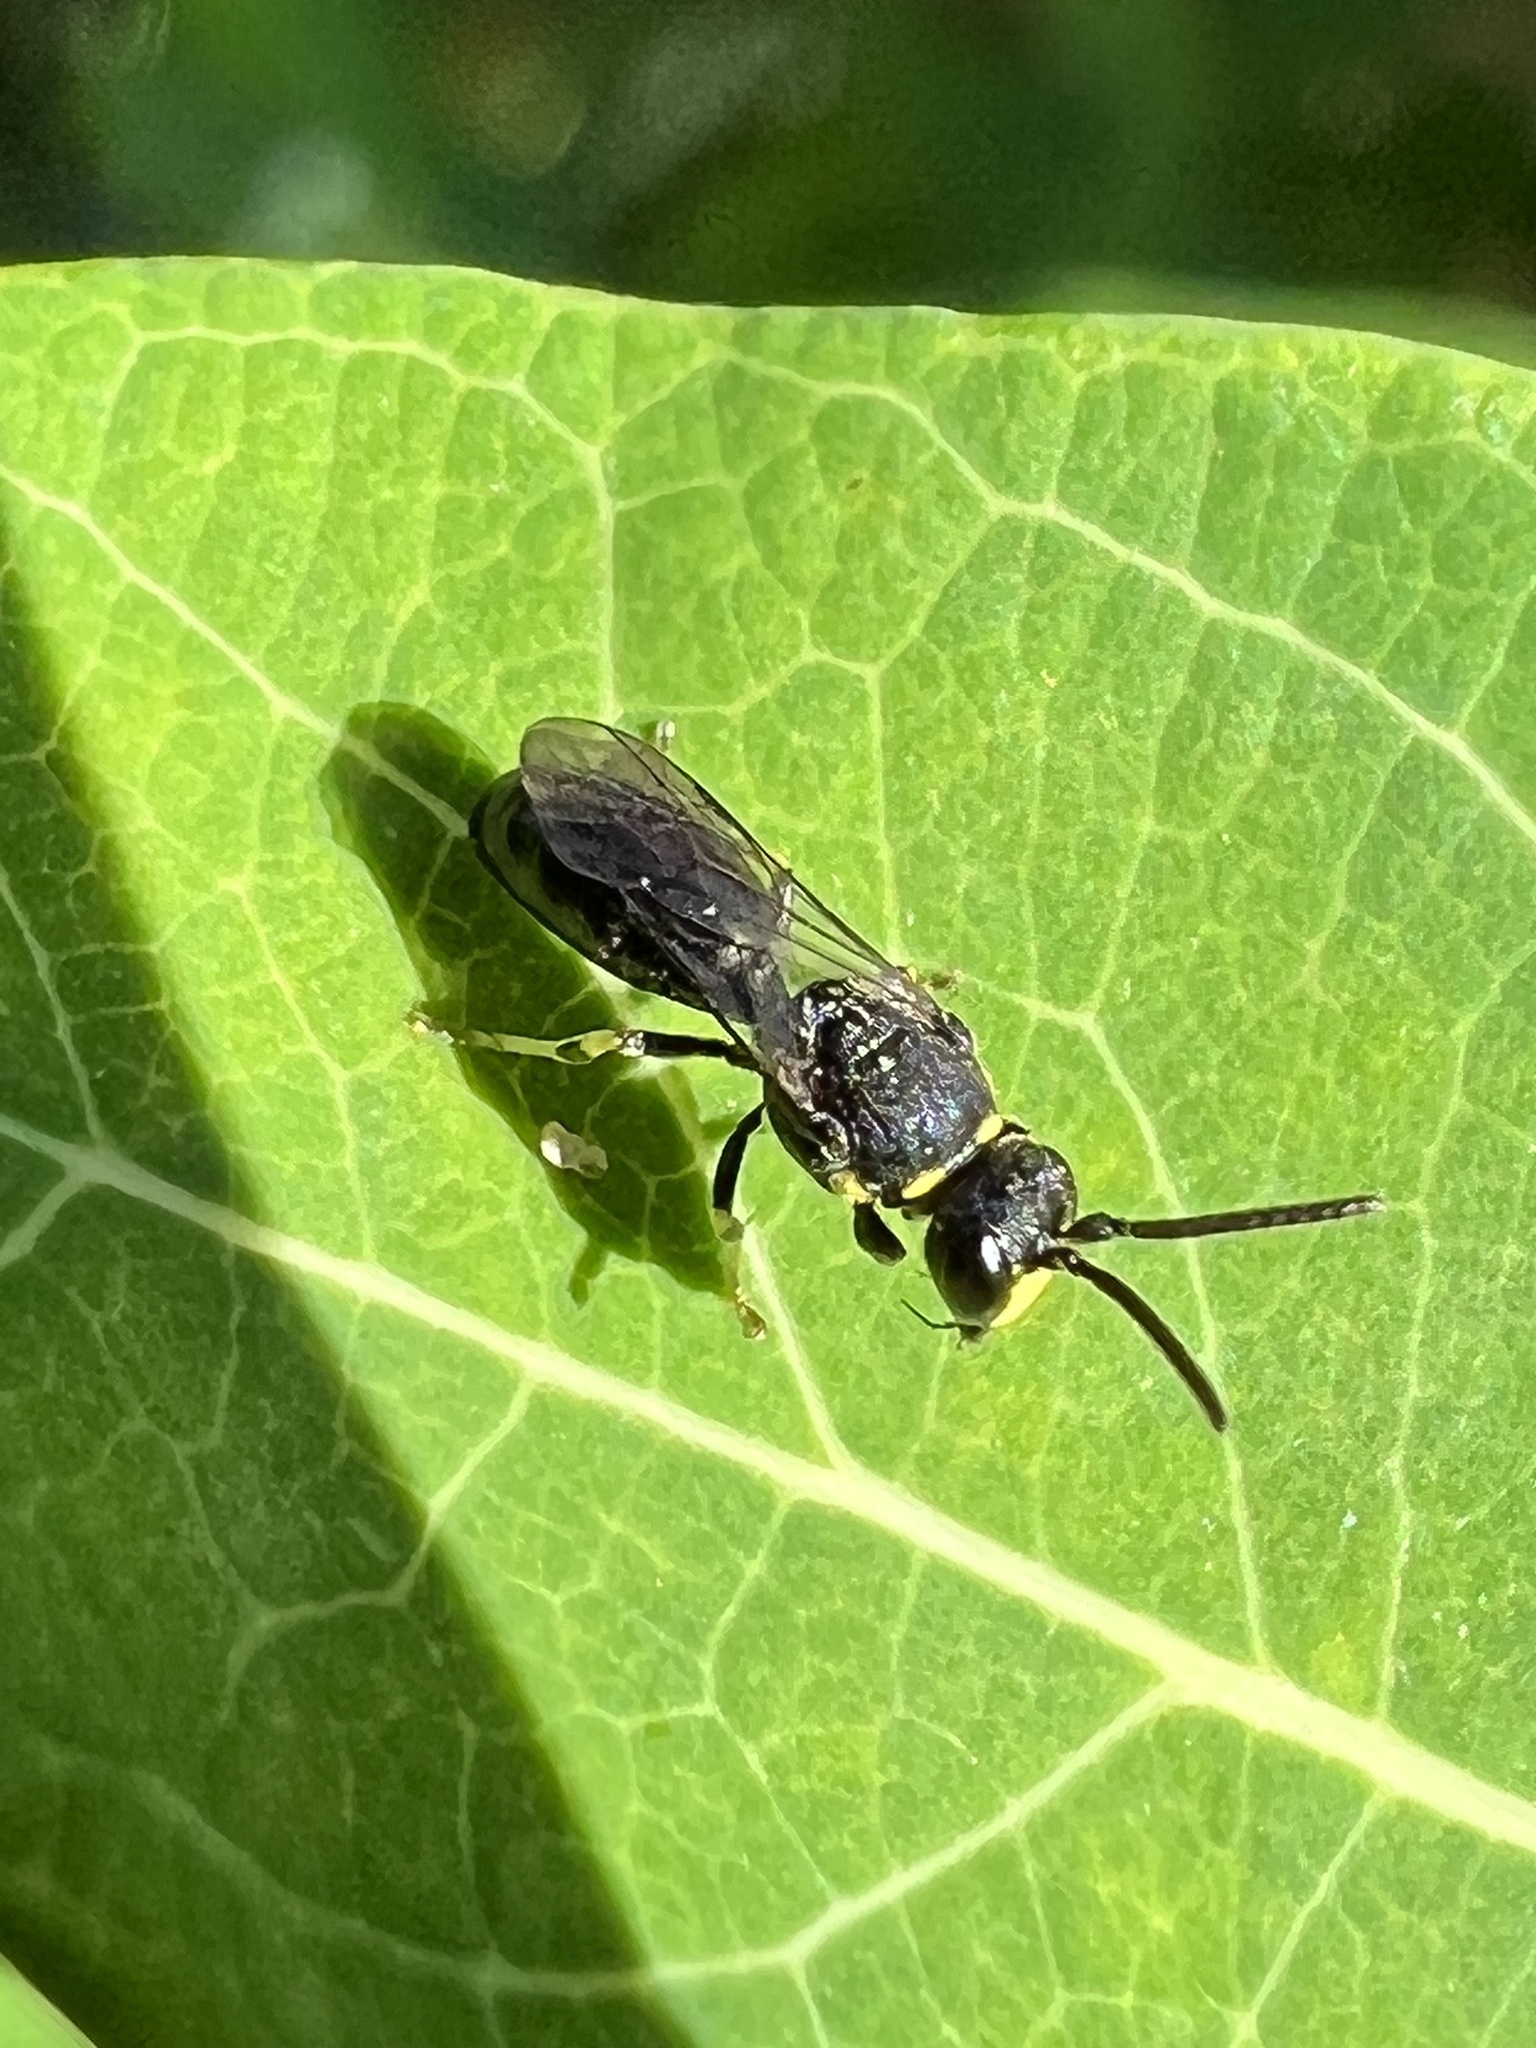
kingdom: Animalia
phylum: Arthropoda
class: Insecta
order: Hymenoptera
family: Colletidae
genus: Hylaeus
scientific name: Hylaeus modestus
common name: Yellow-faced bee
